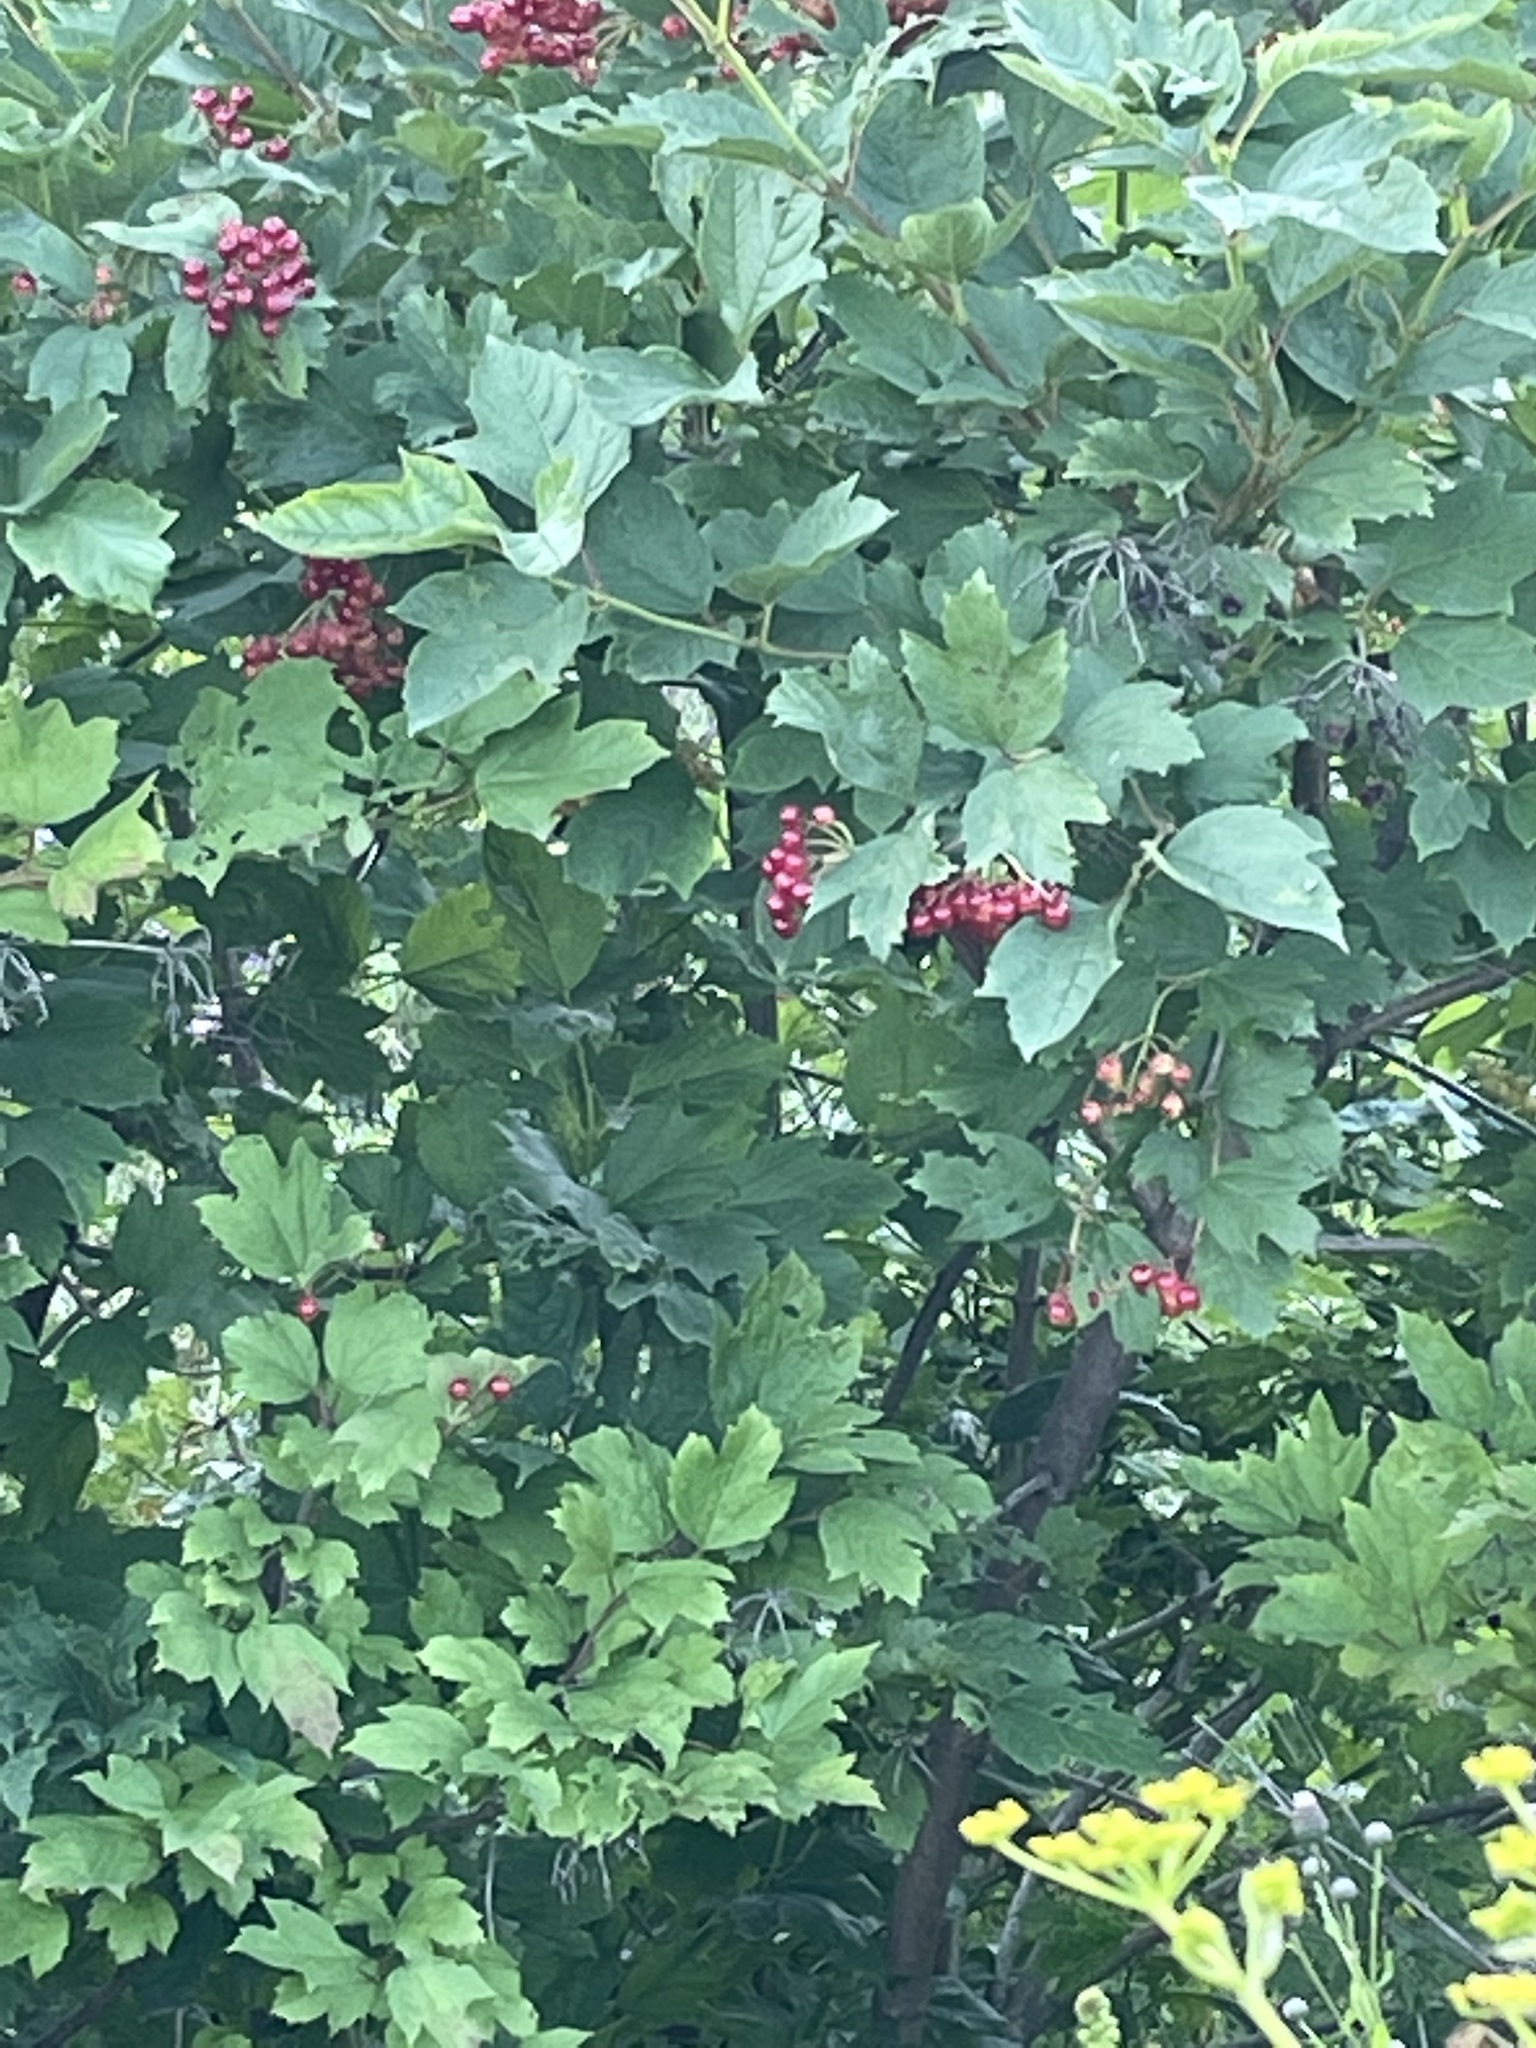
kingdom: Plantae
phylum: Tracheophyta
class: Magnoliopsida
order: Dipsacales
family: Viburnaceae
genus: Viburnum
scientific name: Viburnum opulus
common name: Guelder-rose
